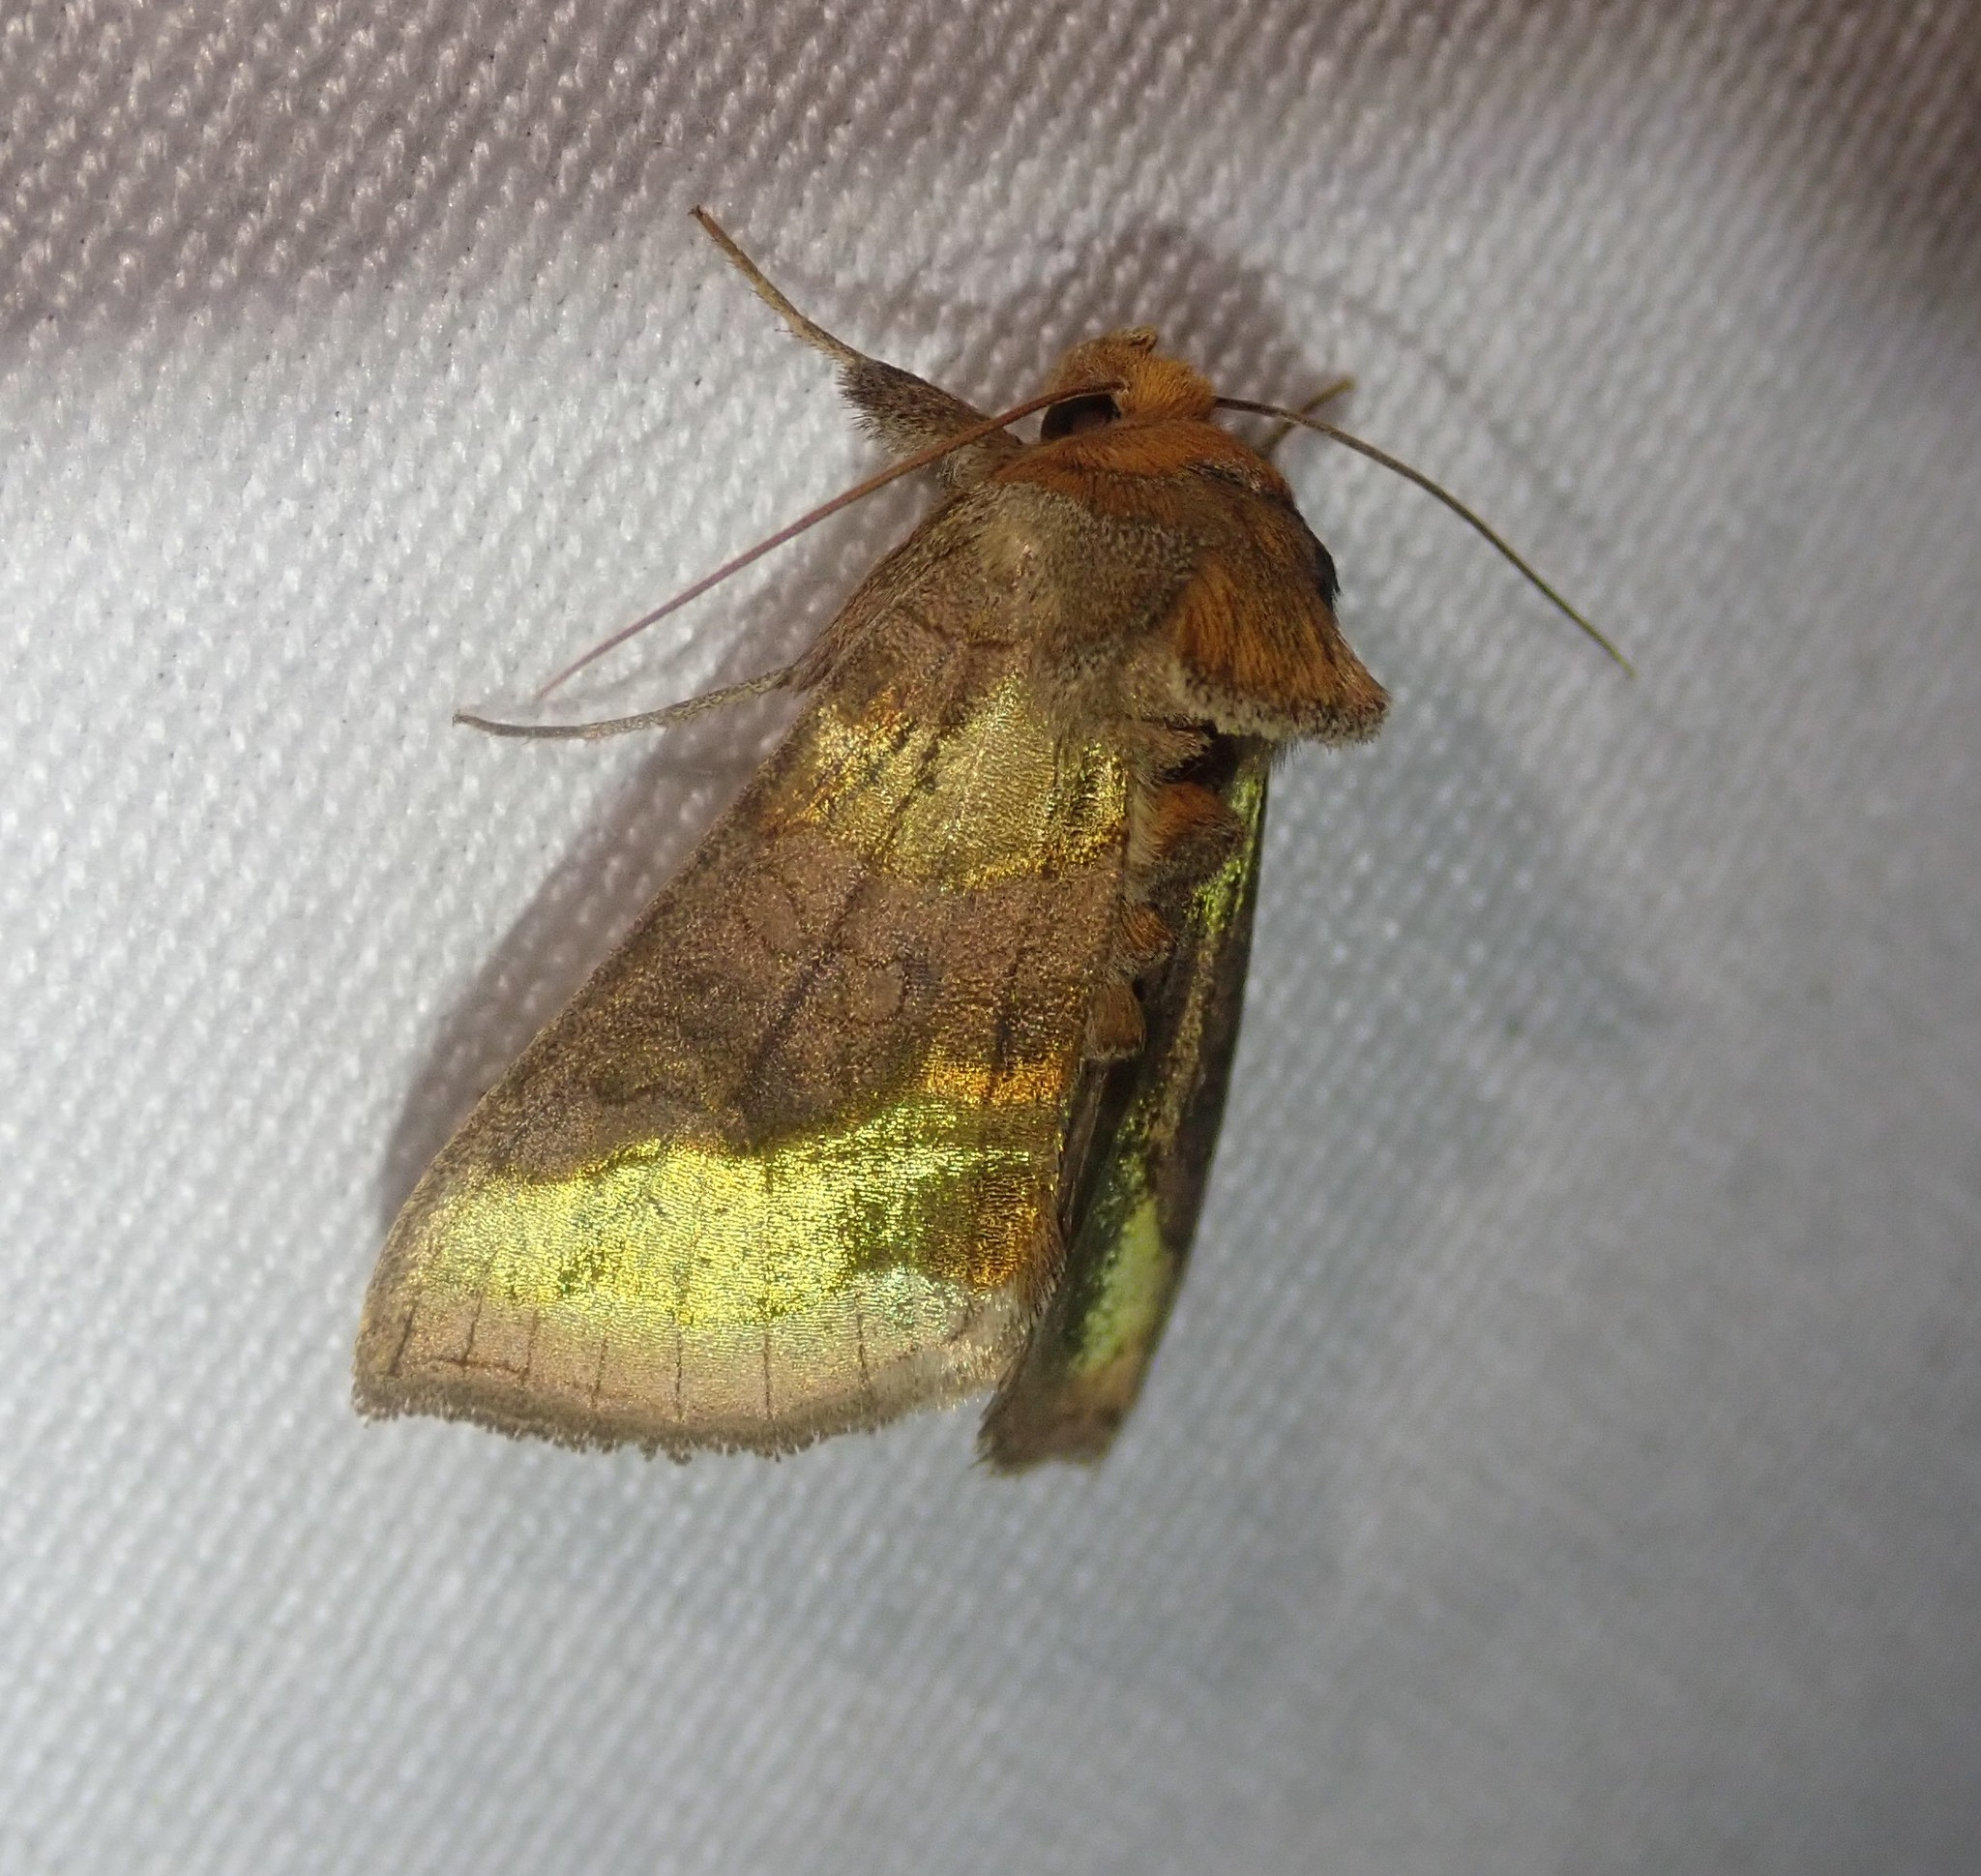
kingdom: Animalia
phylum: Arthropoda
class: Insecta
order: Lepidoptera
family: Noctuidae
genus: Diachrysia
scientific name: Diachrysia chrysitis
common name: Burnished brass
